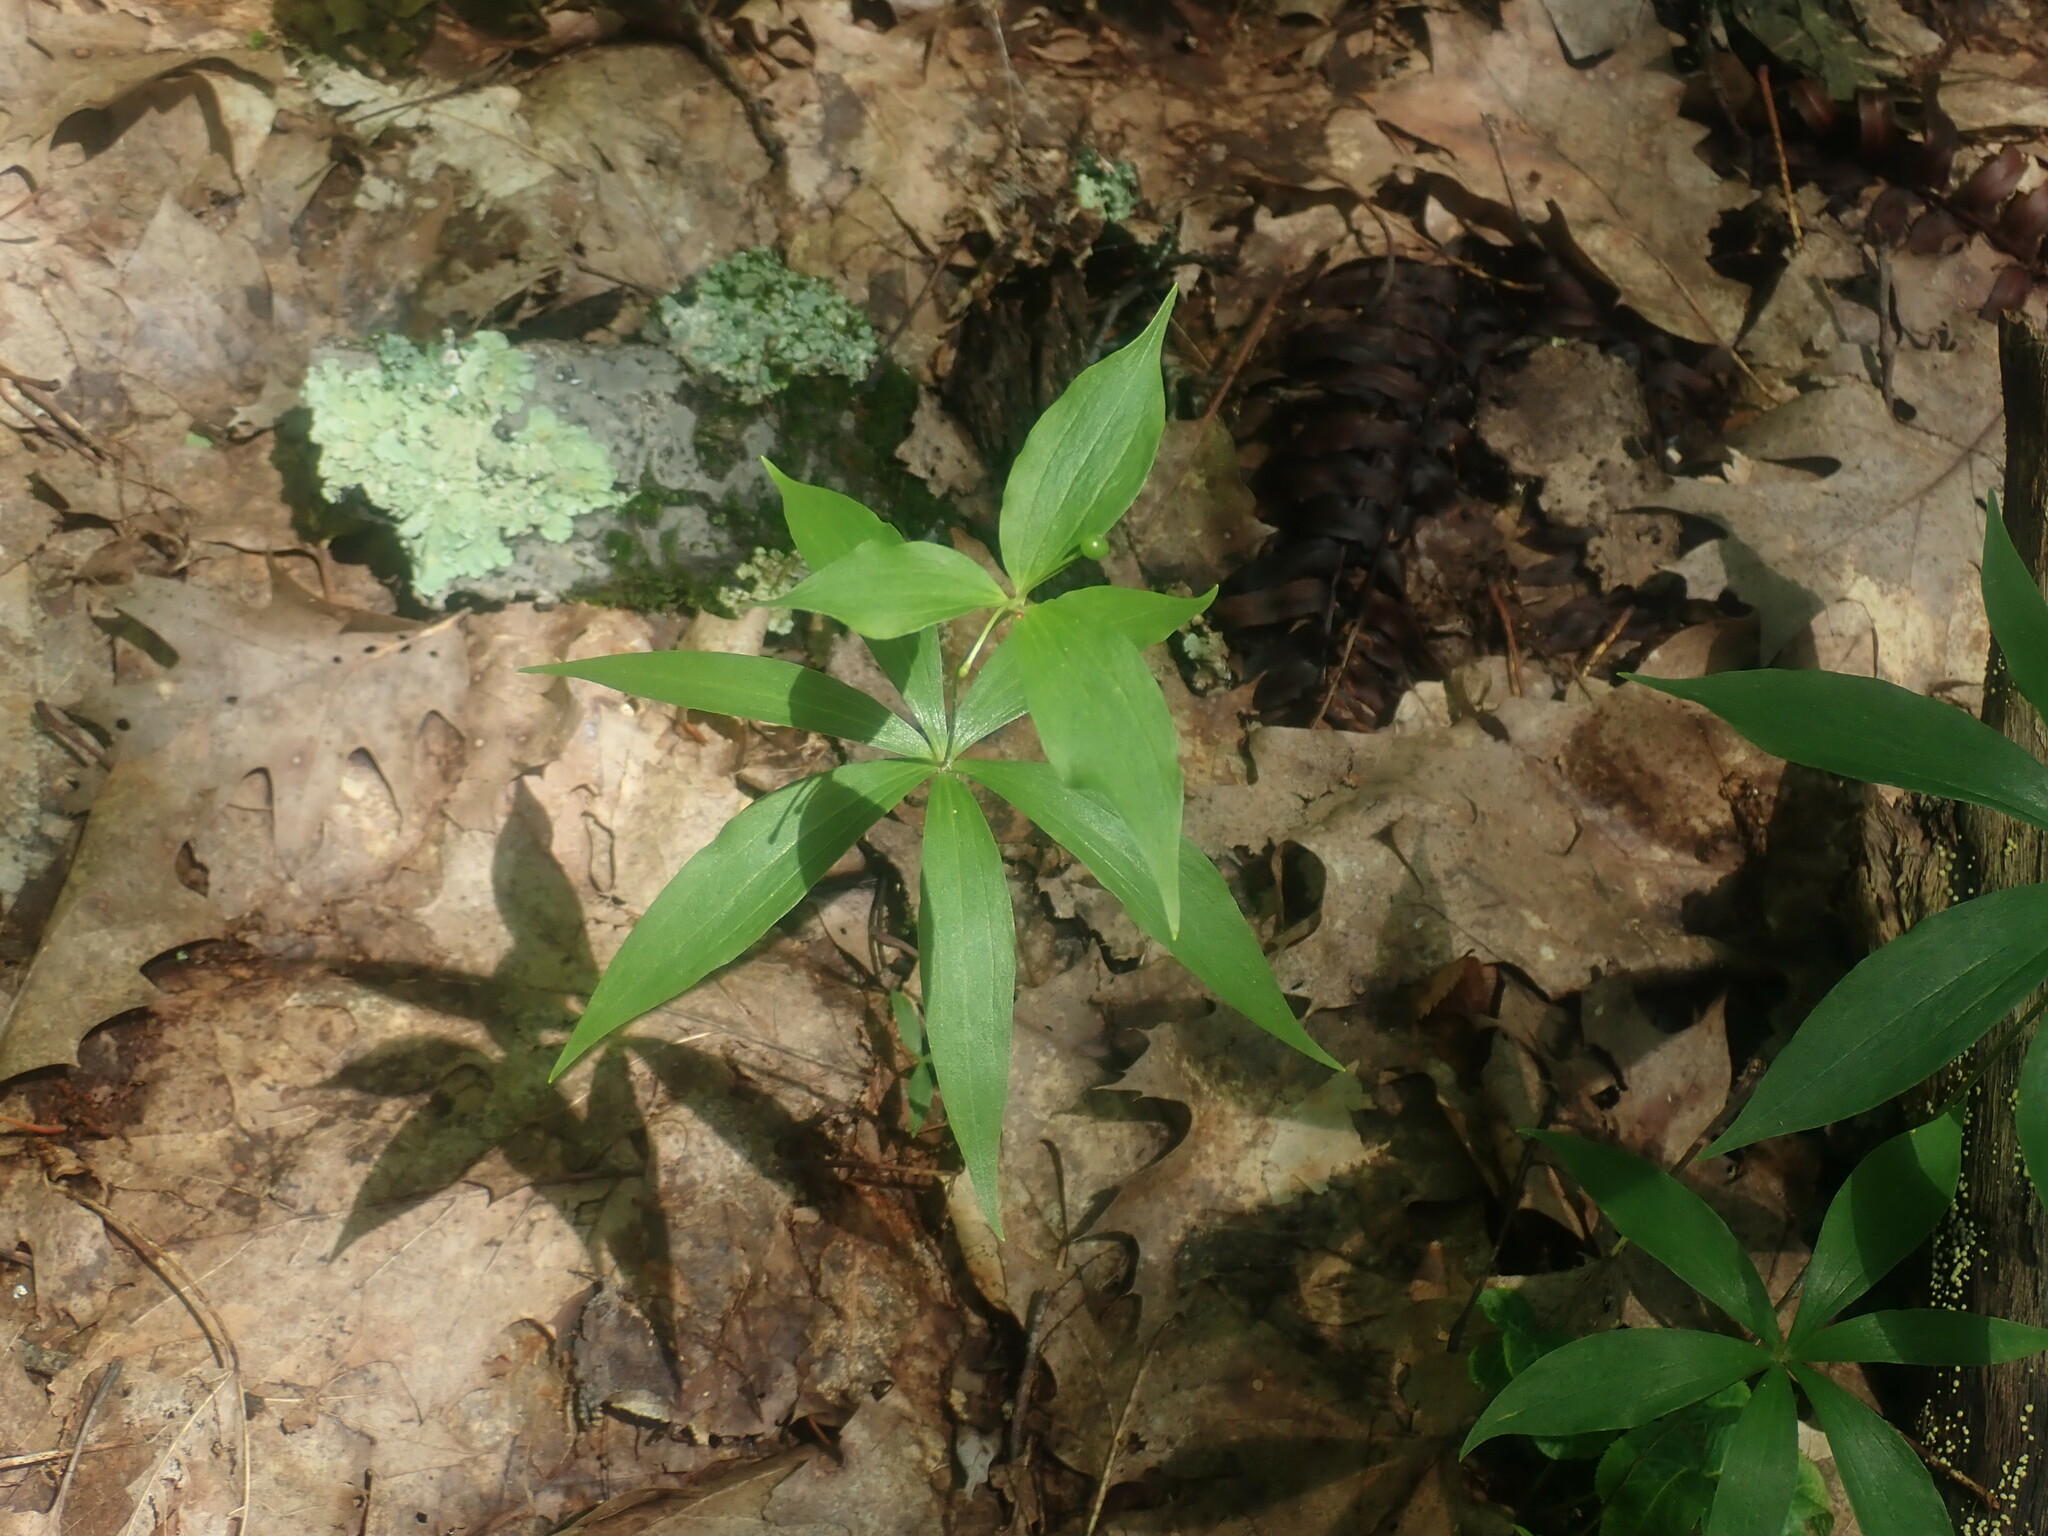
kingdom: Plantae
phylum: Tracheophyta
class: Liliopsida
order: Liliales
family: Liliaceae
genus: Medeola
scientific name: Medeola virginiana
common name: Indian cucumber-root
